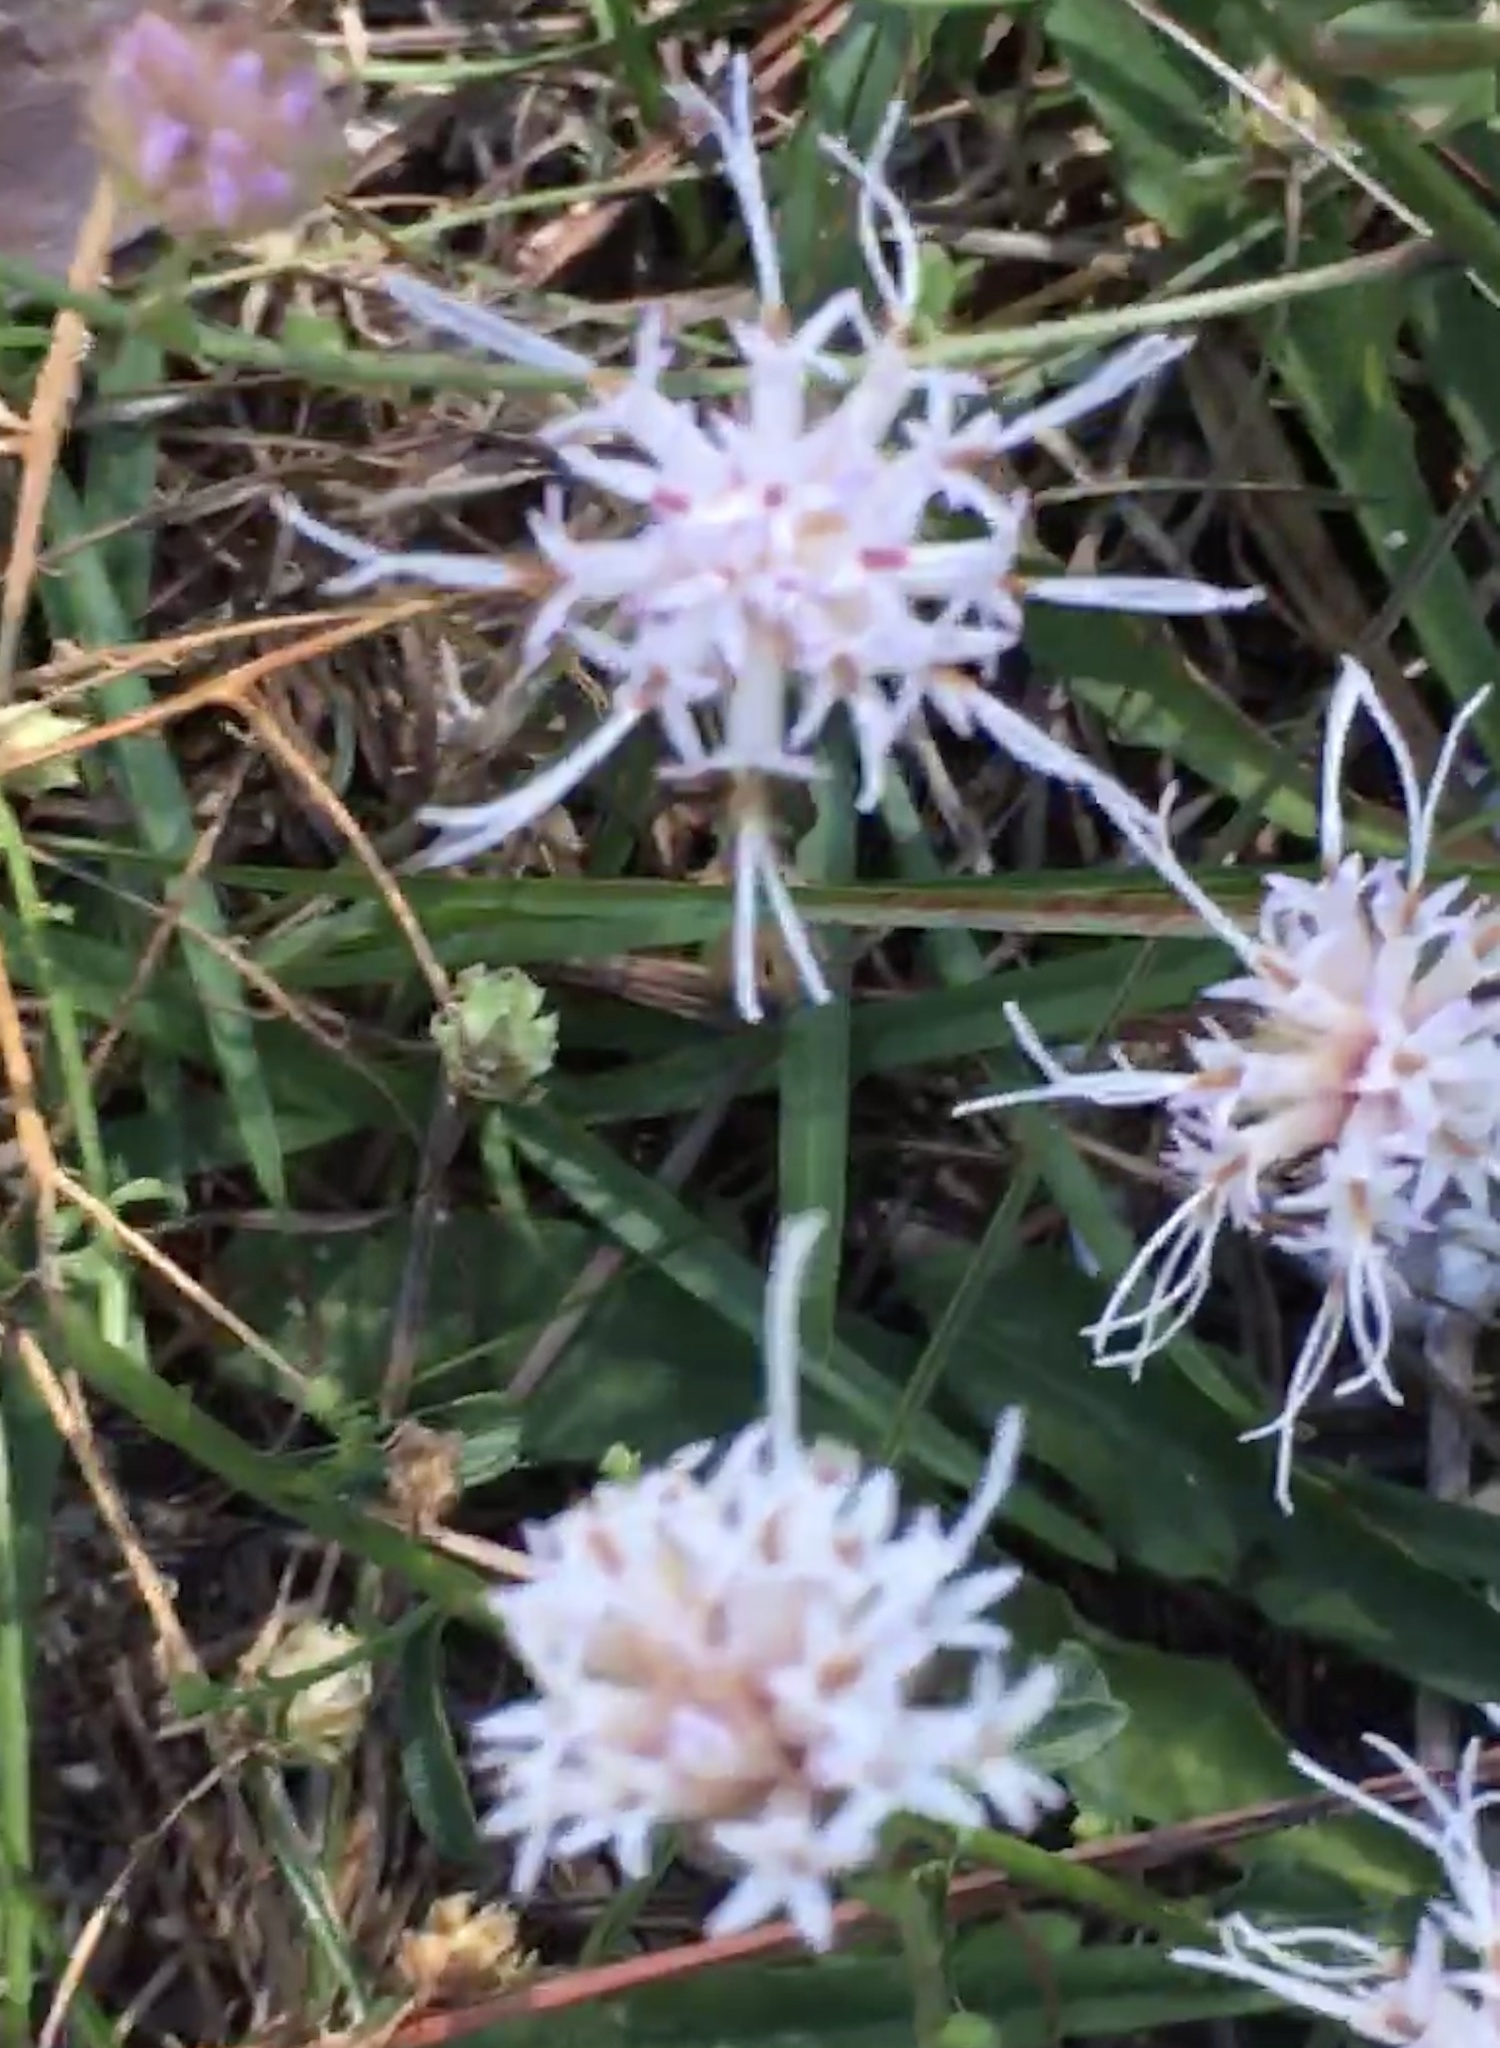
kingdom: Plantae
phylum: Tracheophyta
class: Magnoliopsida
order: Asterales
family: Asteraceae
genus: Carphephorus
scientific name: Carphephorus bellidifolius
